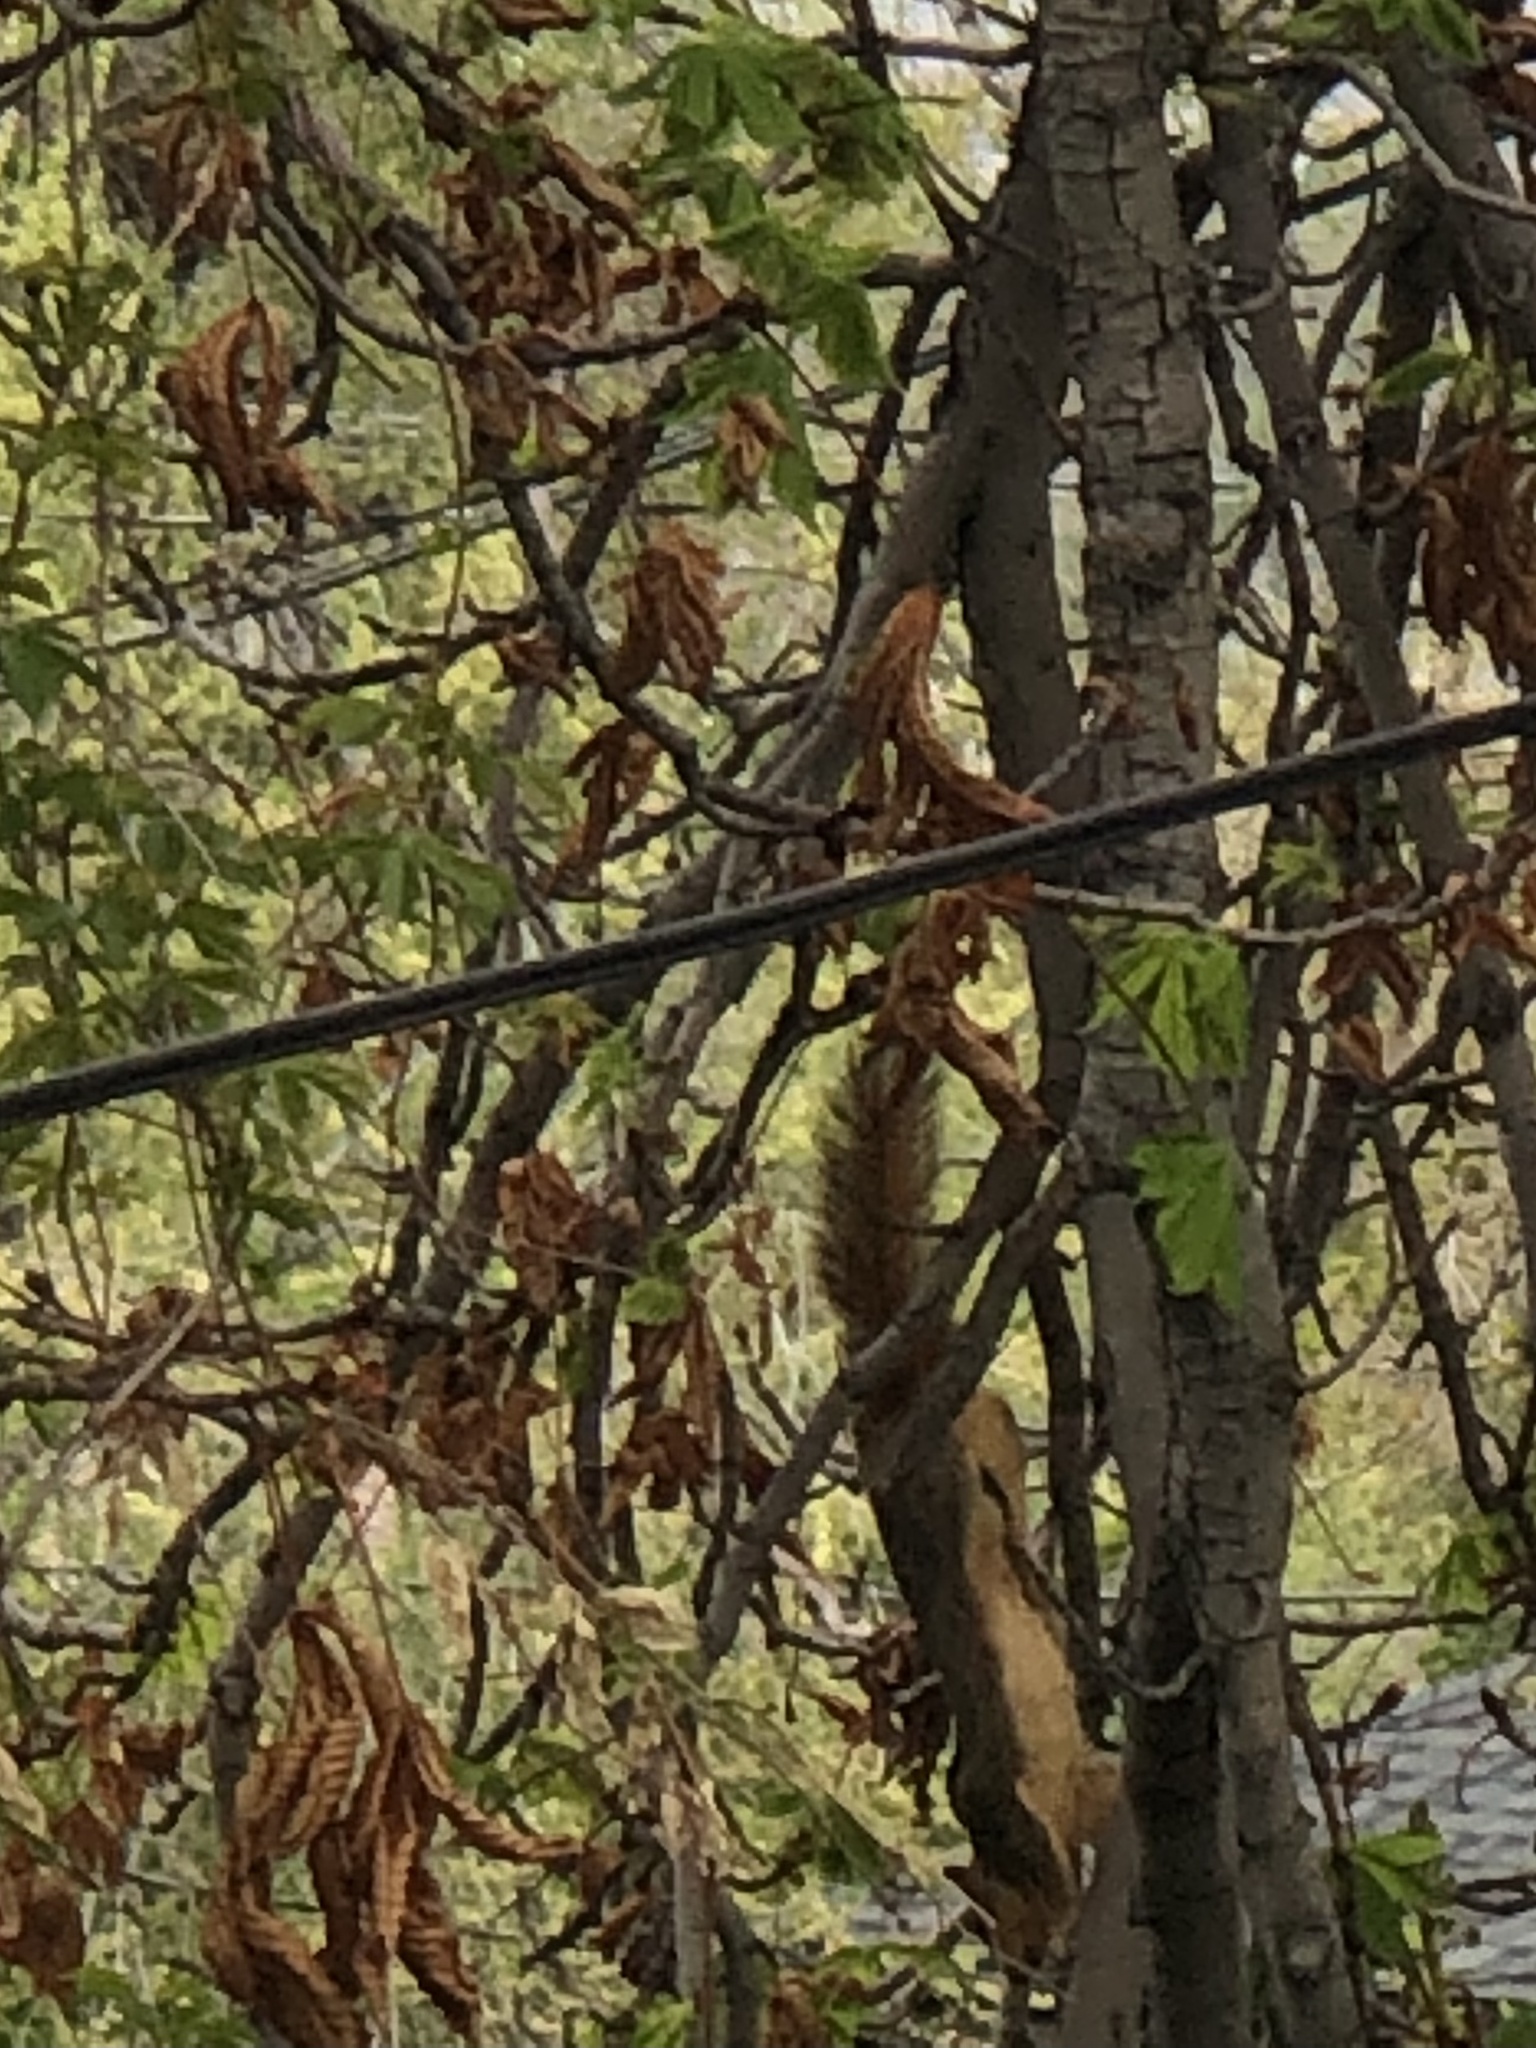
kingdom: Animalia
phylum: Chordata
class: Mammalia
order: Rodentia
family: Sciuridae
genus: Sciurus
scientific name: Sciurus niger
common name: Fox squirrel
